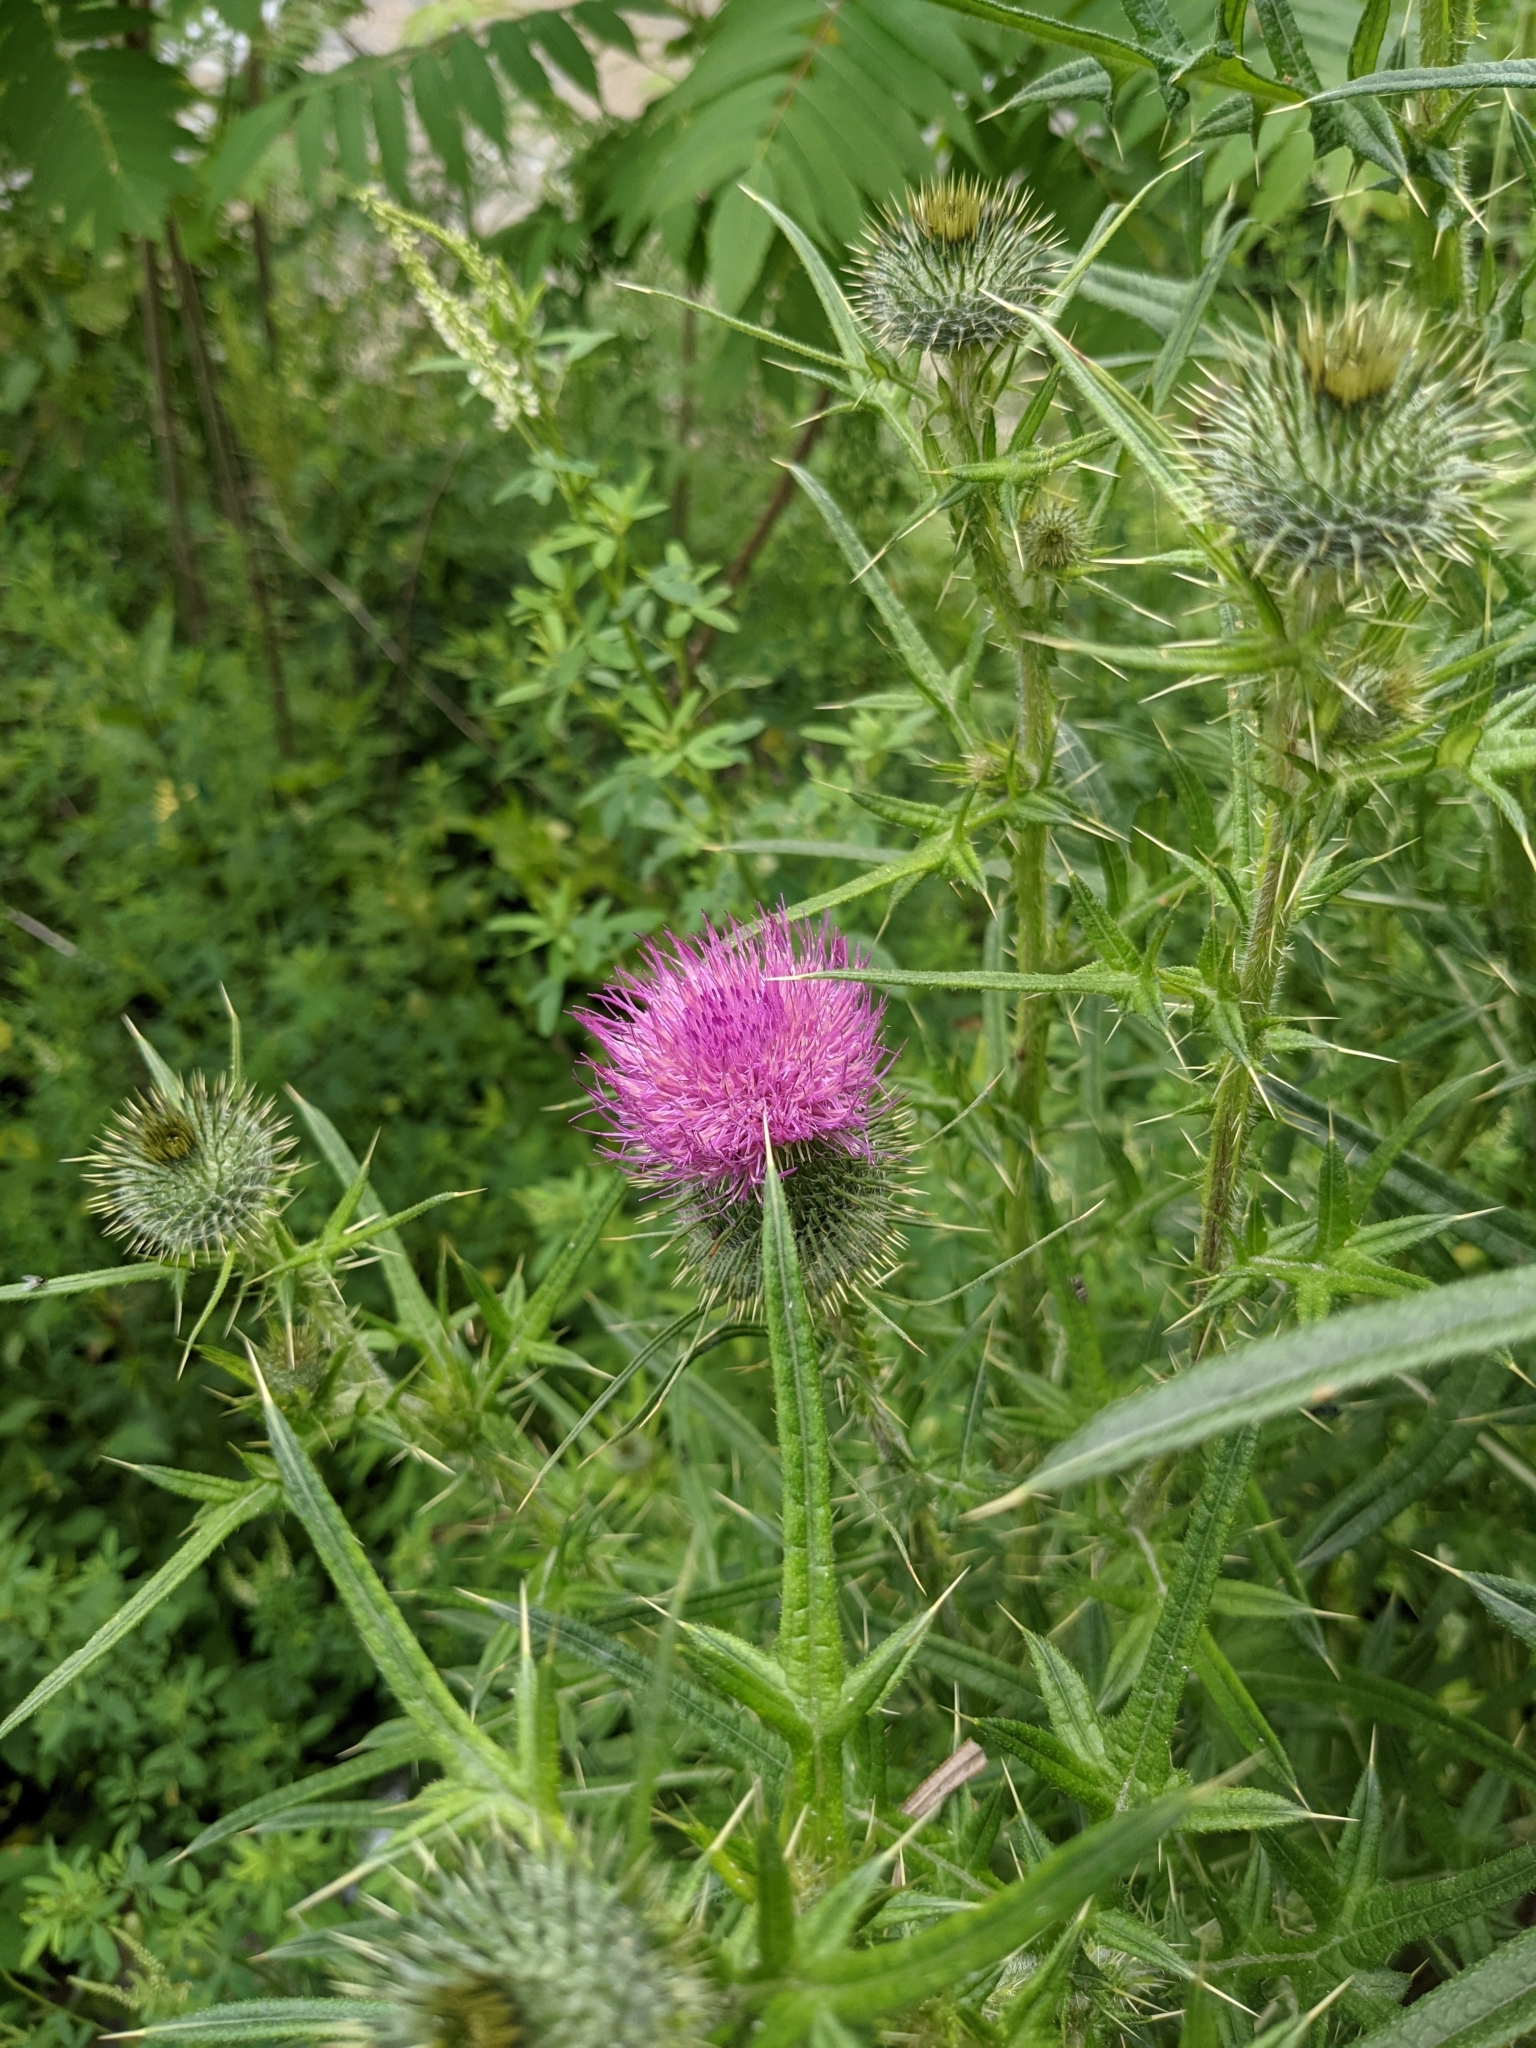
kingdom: Plantae
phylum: Tracheophyta
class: Magnoliopsida
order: Asterales
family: Asteraceae
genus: Cirsium
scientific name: Cirsium vulgare
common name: Bull thistle
